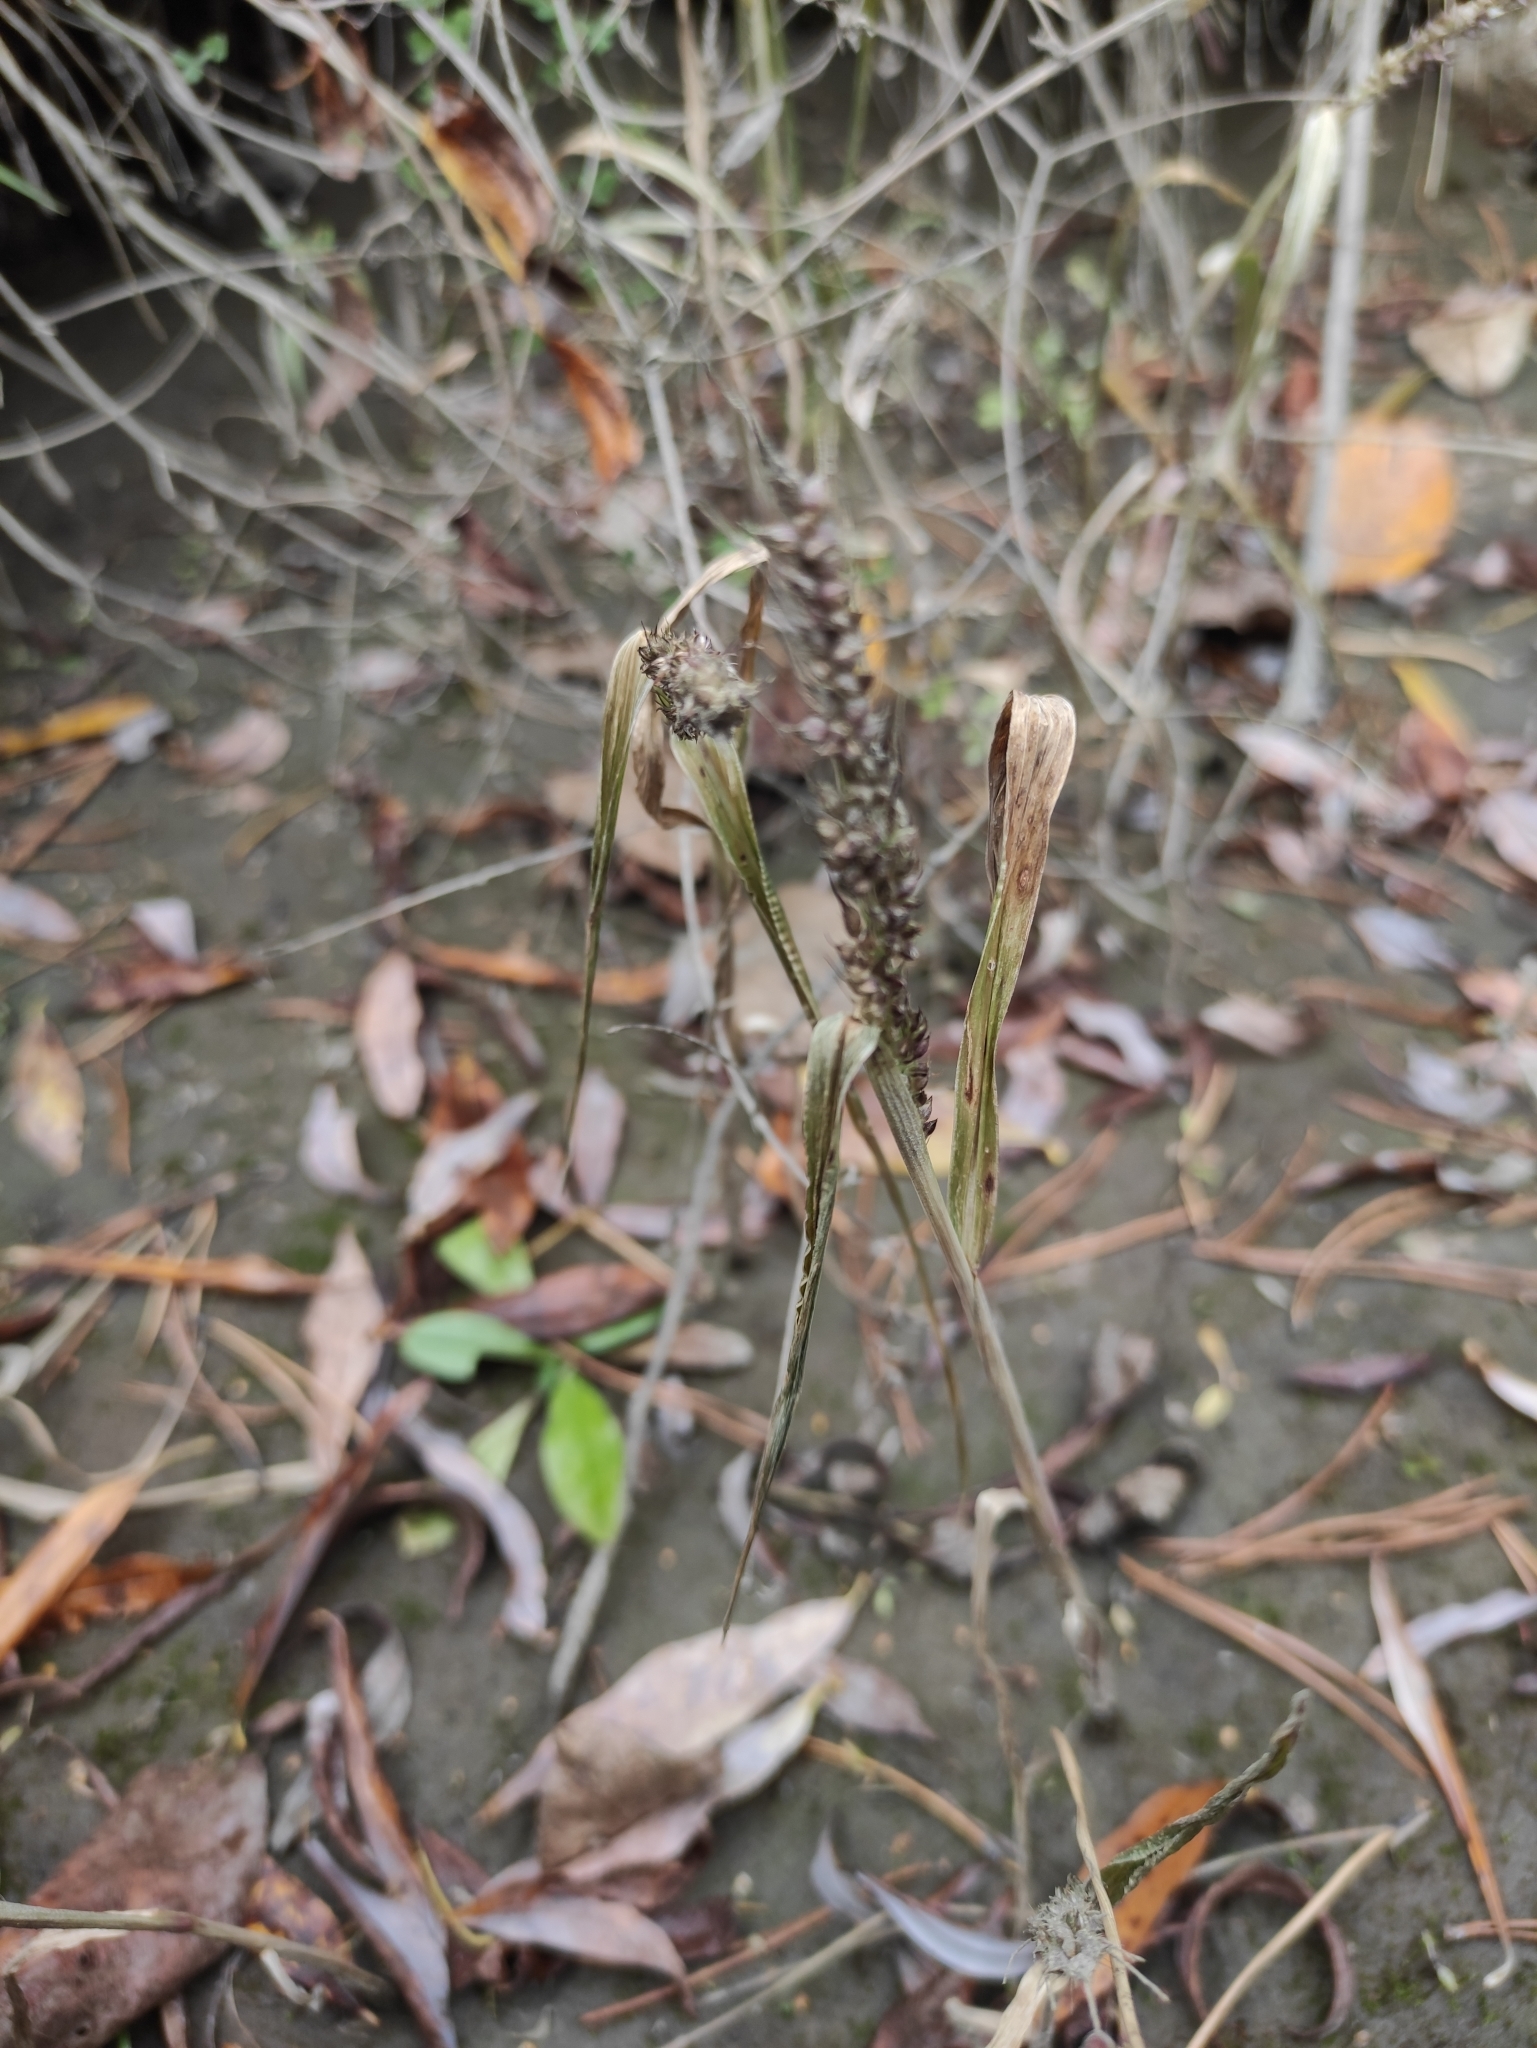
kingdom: Plantae
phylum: Tracheophyta
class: Liliopsida
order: Poales
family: Poaceae
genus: Echinochloa
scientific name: Echinochloa crus-galli
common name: Cockspur
